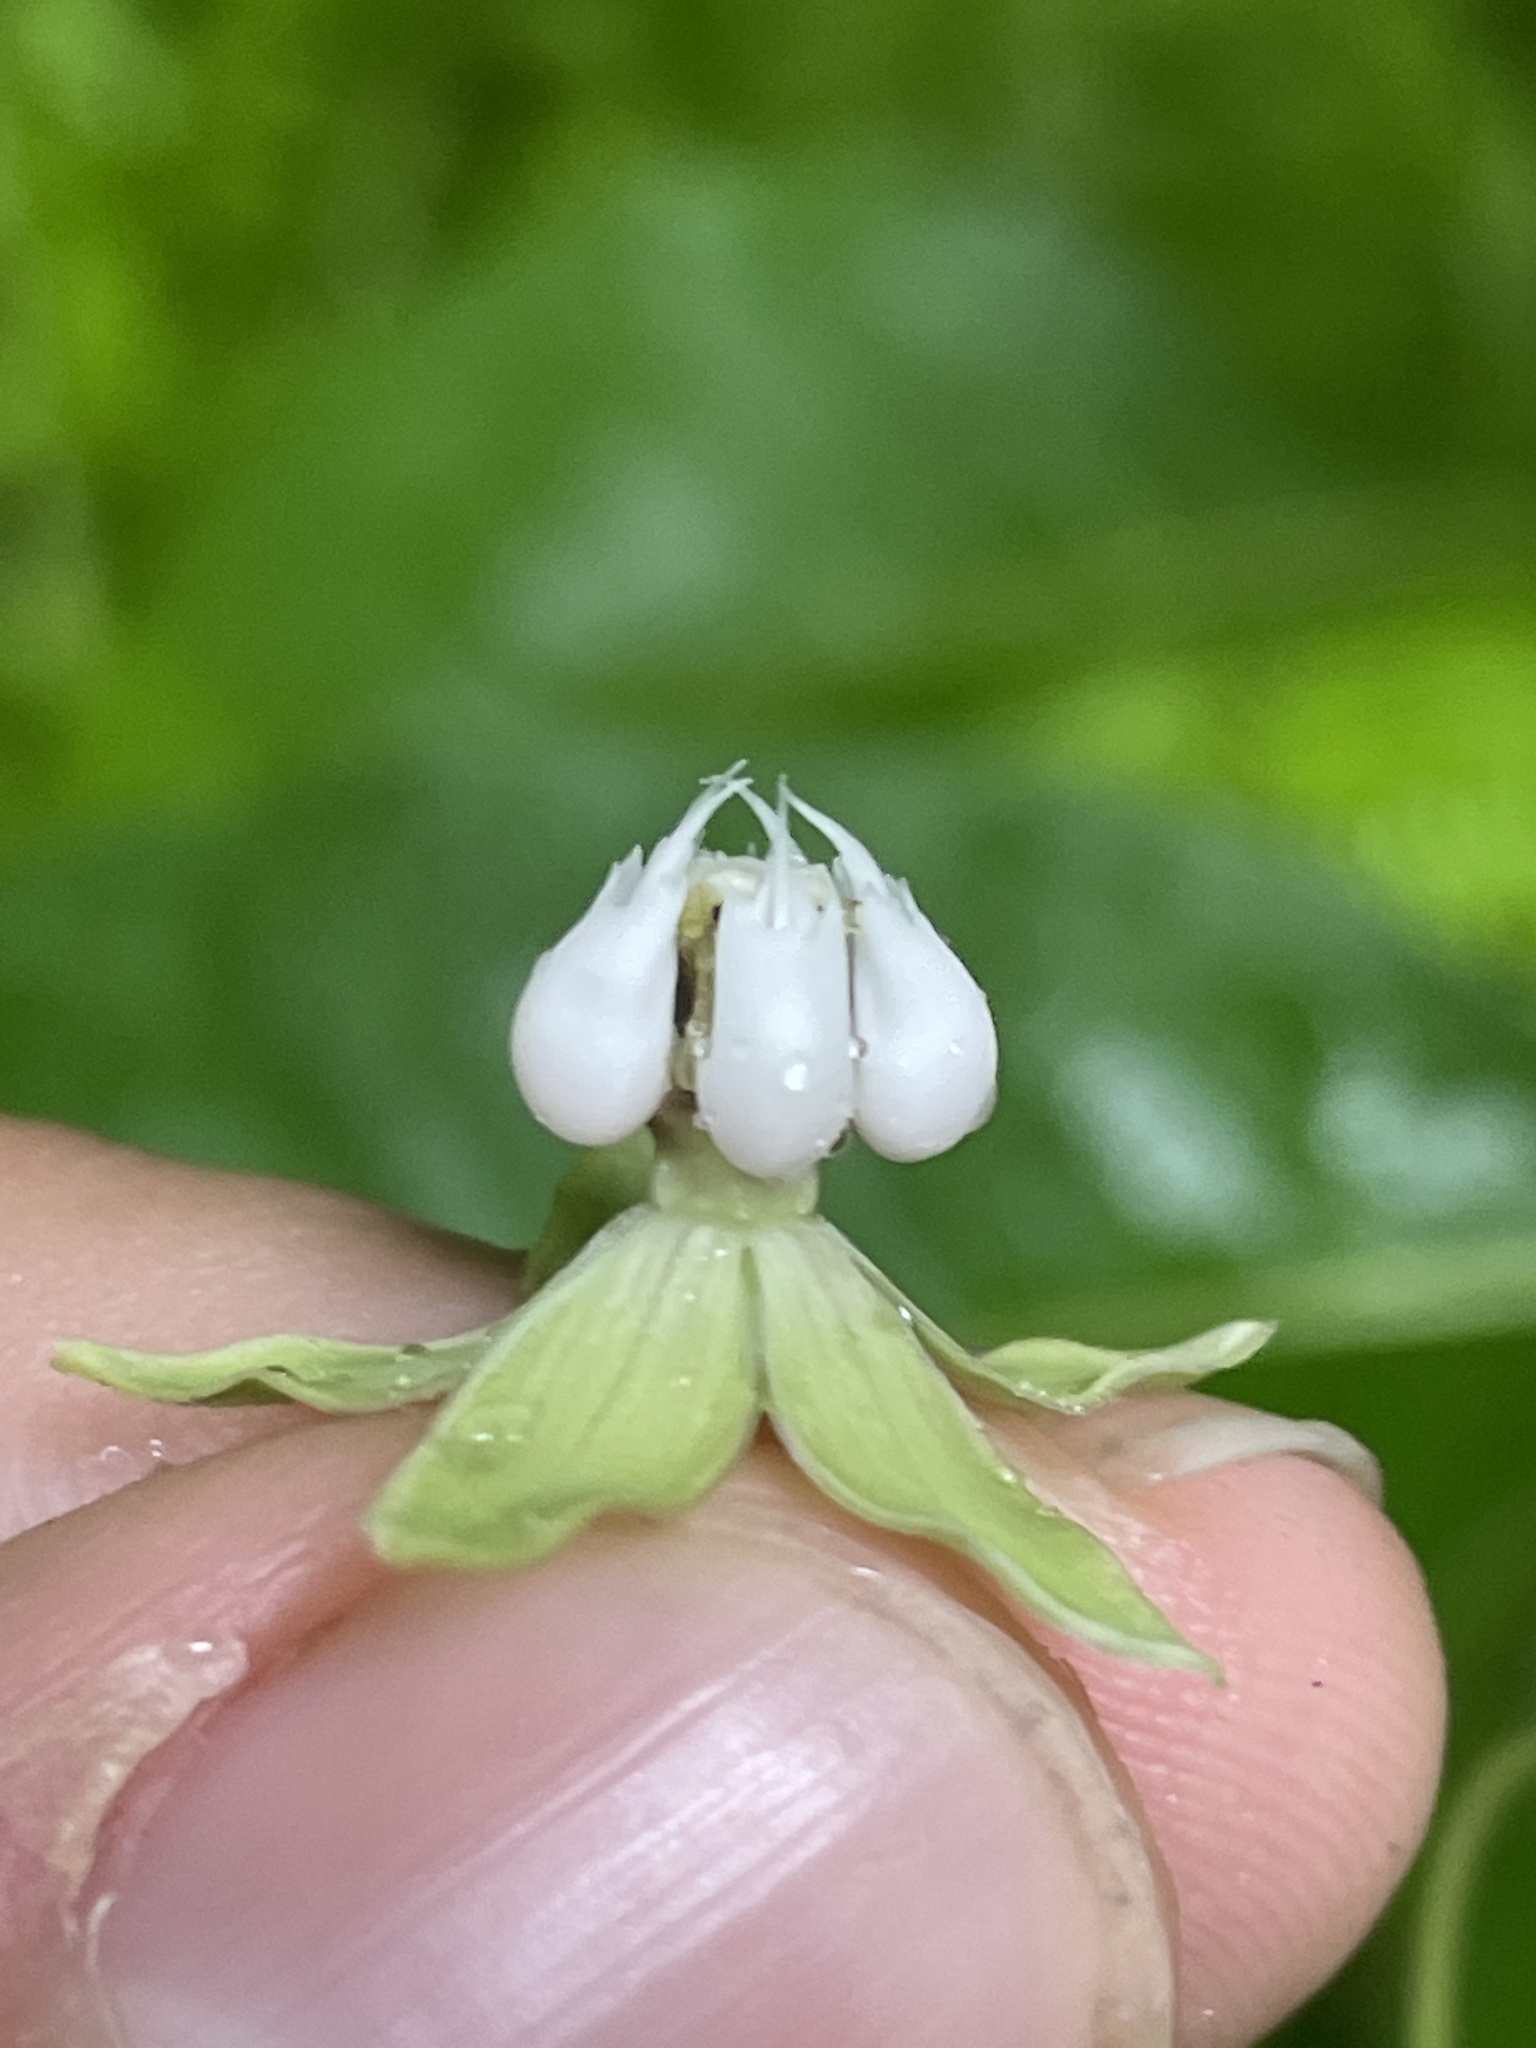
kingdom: Plantae
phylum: Tracheophyta
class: Magnoliopsida
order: Gentianales
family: Apocynaceae
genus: Asclepias
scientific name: Asclepias exaltata
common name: Poke milkweed
